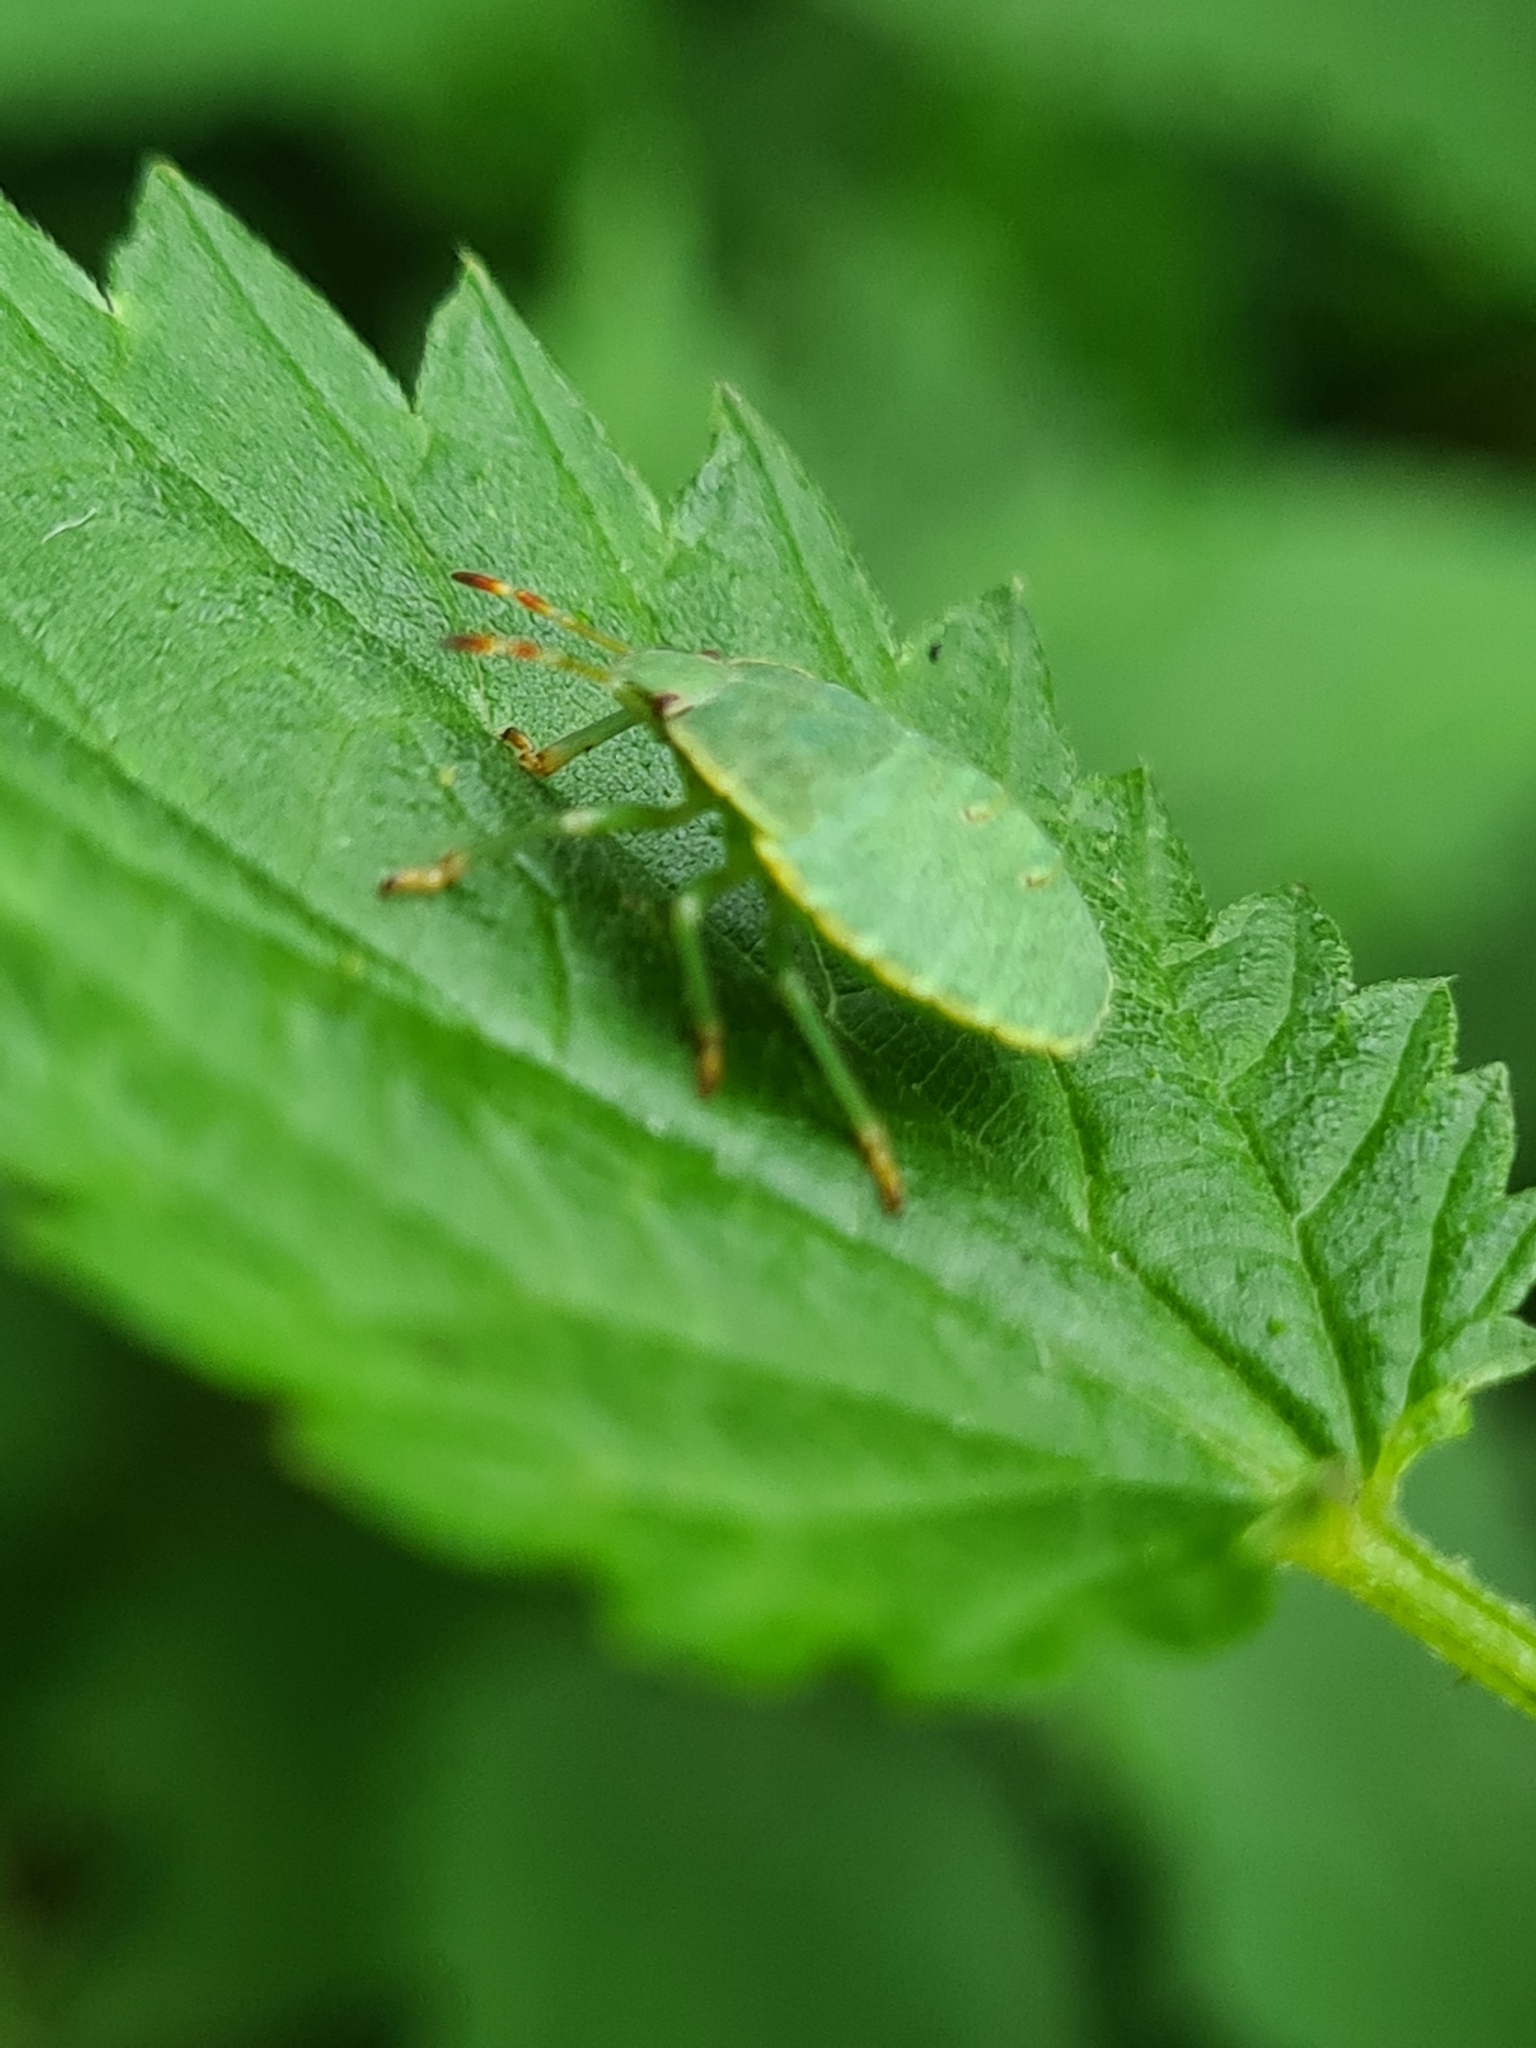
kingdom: Animalia
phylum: Arthropoda
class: Insecta
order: Hemiptera
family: Pentatomidae
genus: Palomena
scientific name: Palomena prasina
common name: Green shieldbug
